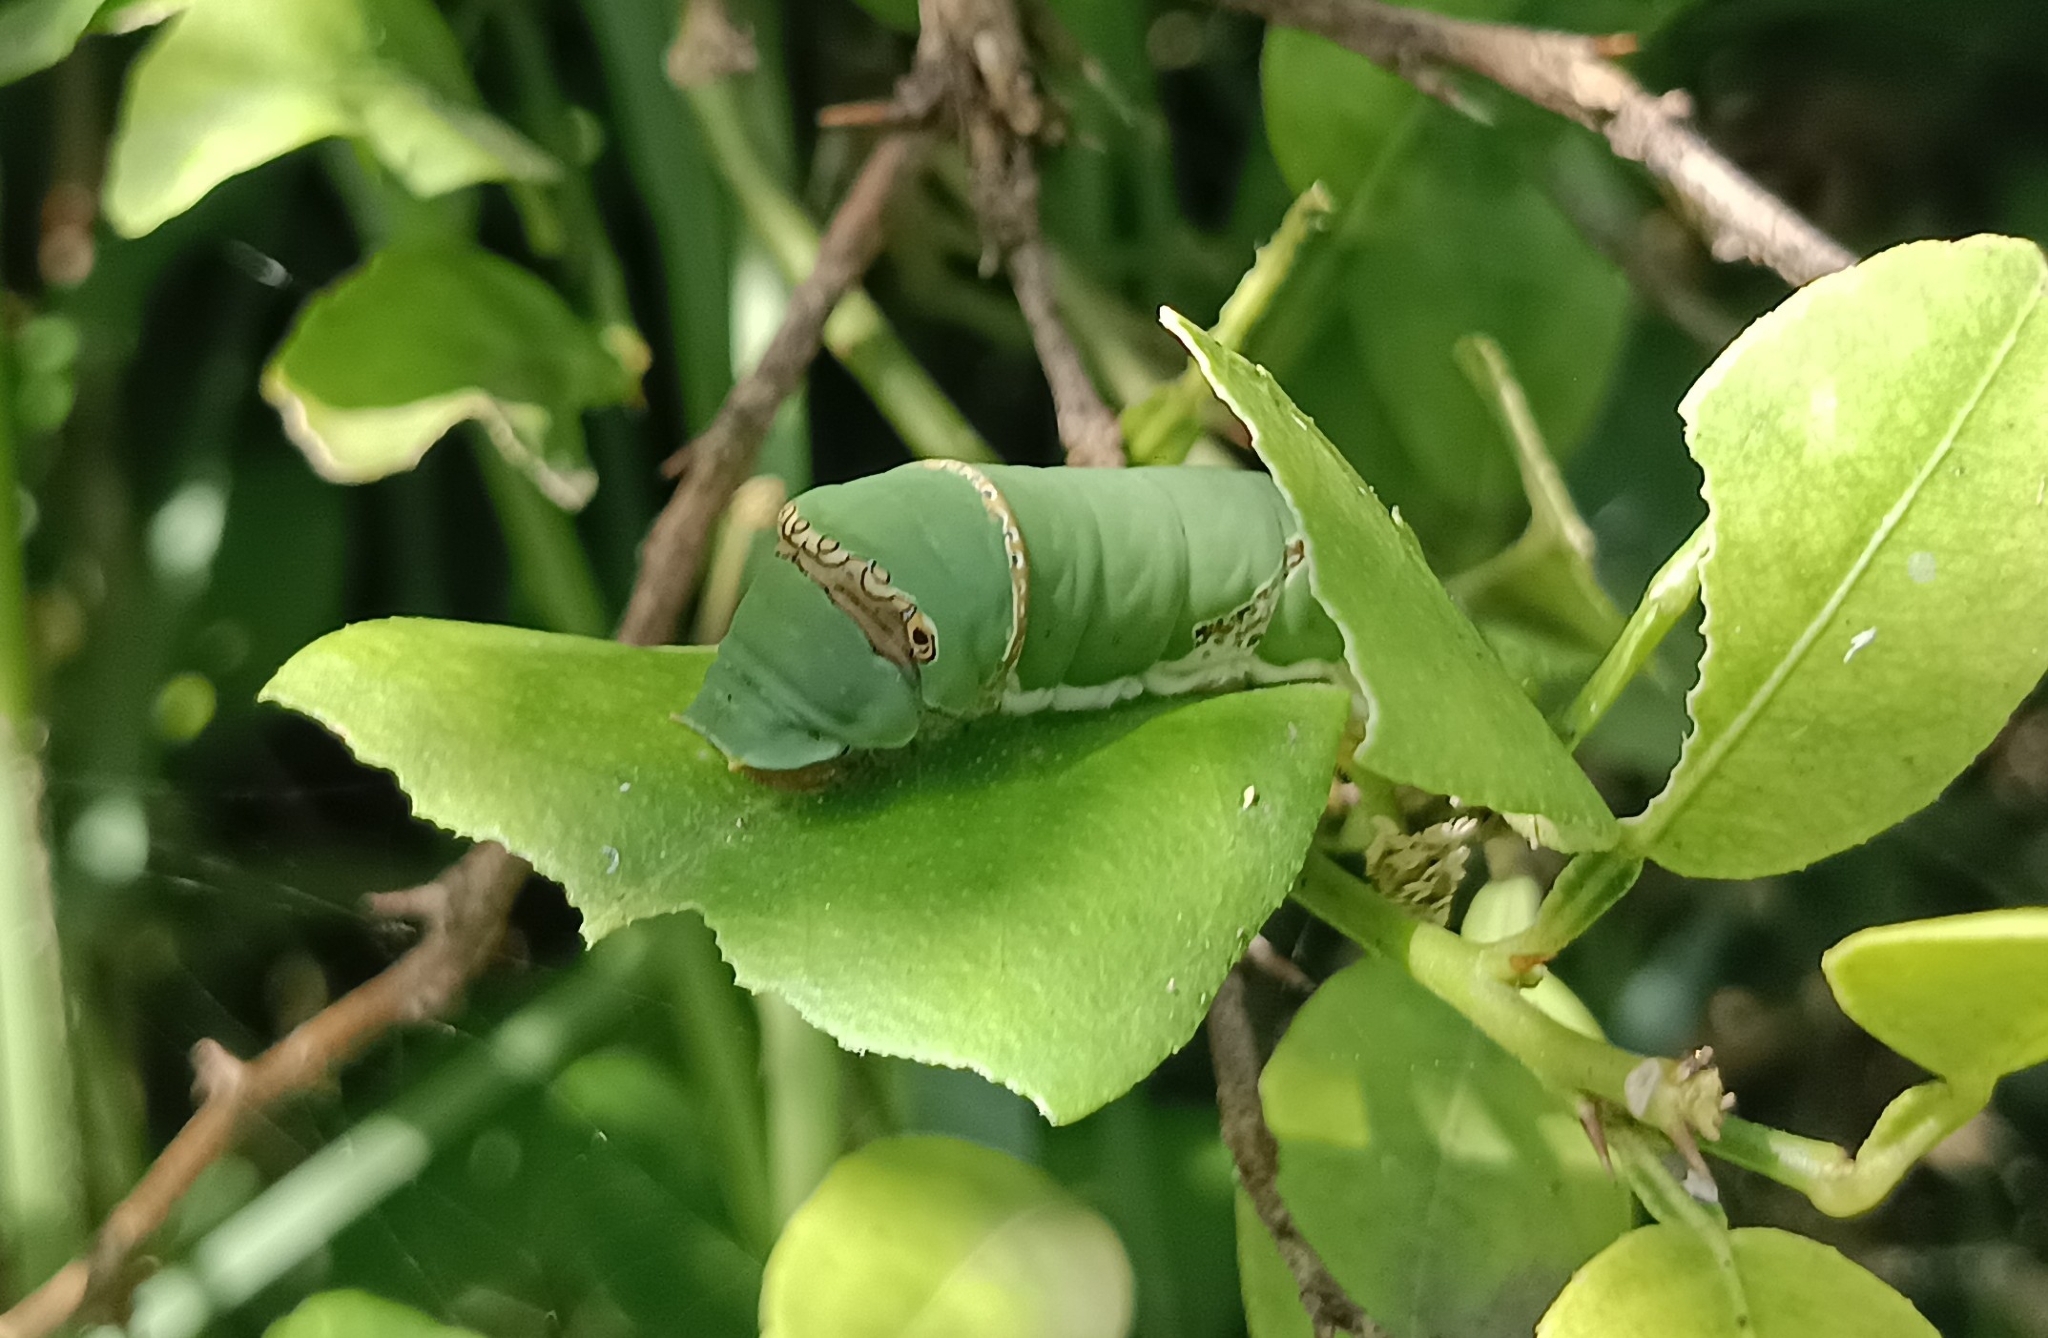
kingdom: Animalia
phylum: Arthropoda
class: Insecta
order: Lepidoptera
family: Papilionidae
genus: Papilio
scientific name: Papilio demoleus
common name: Lime butterfly
